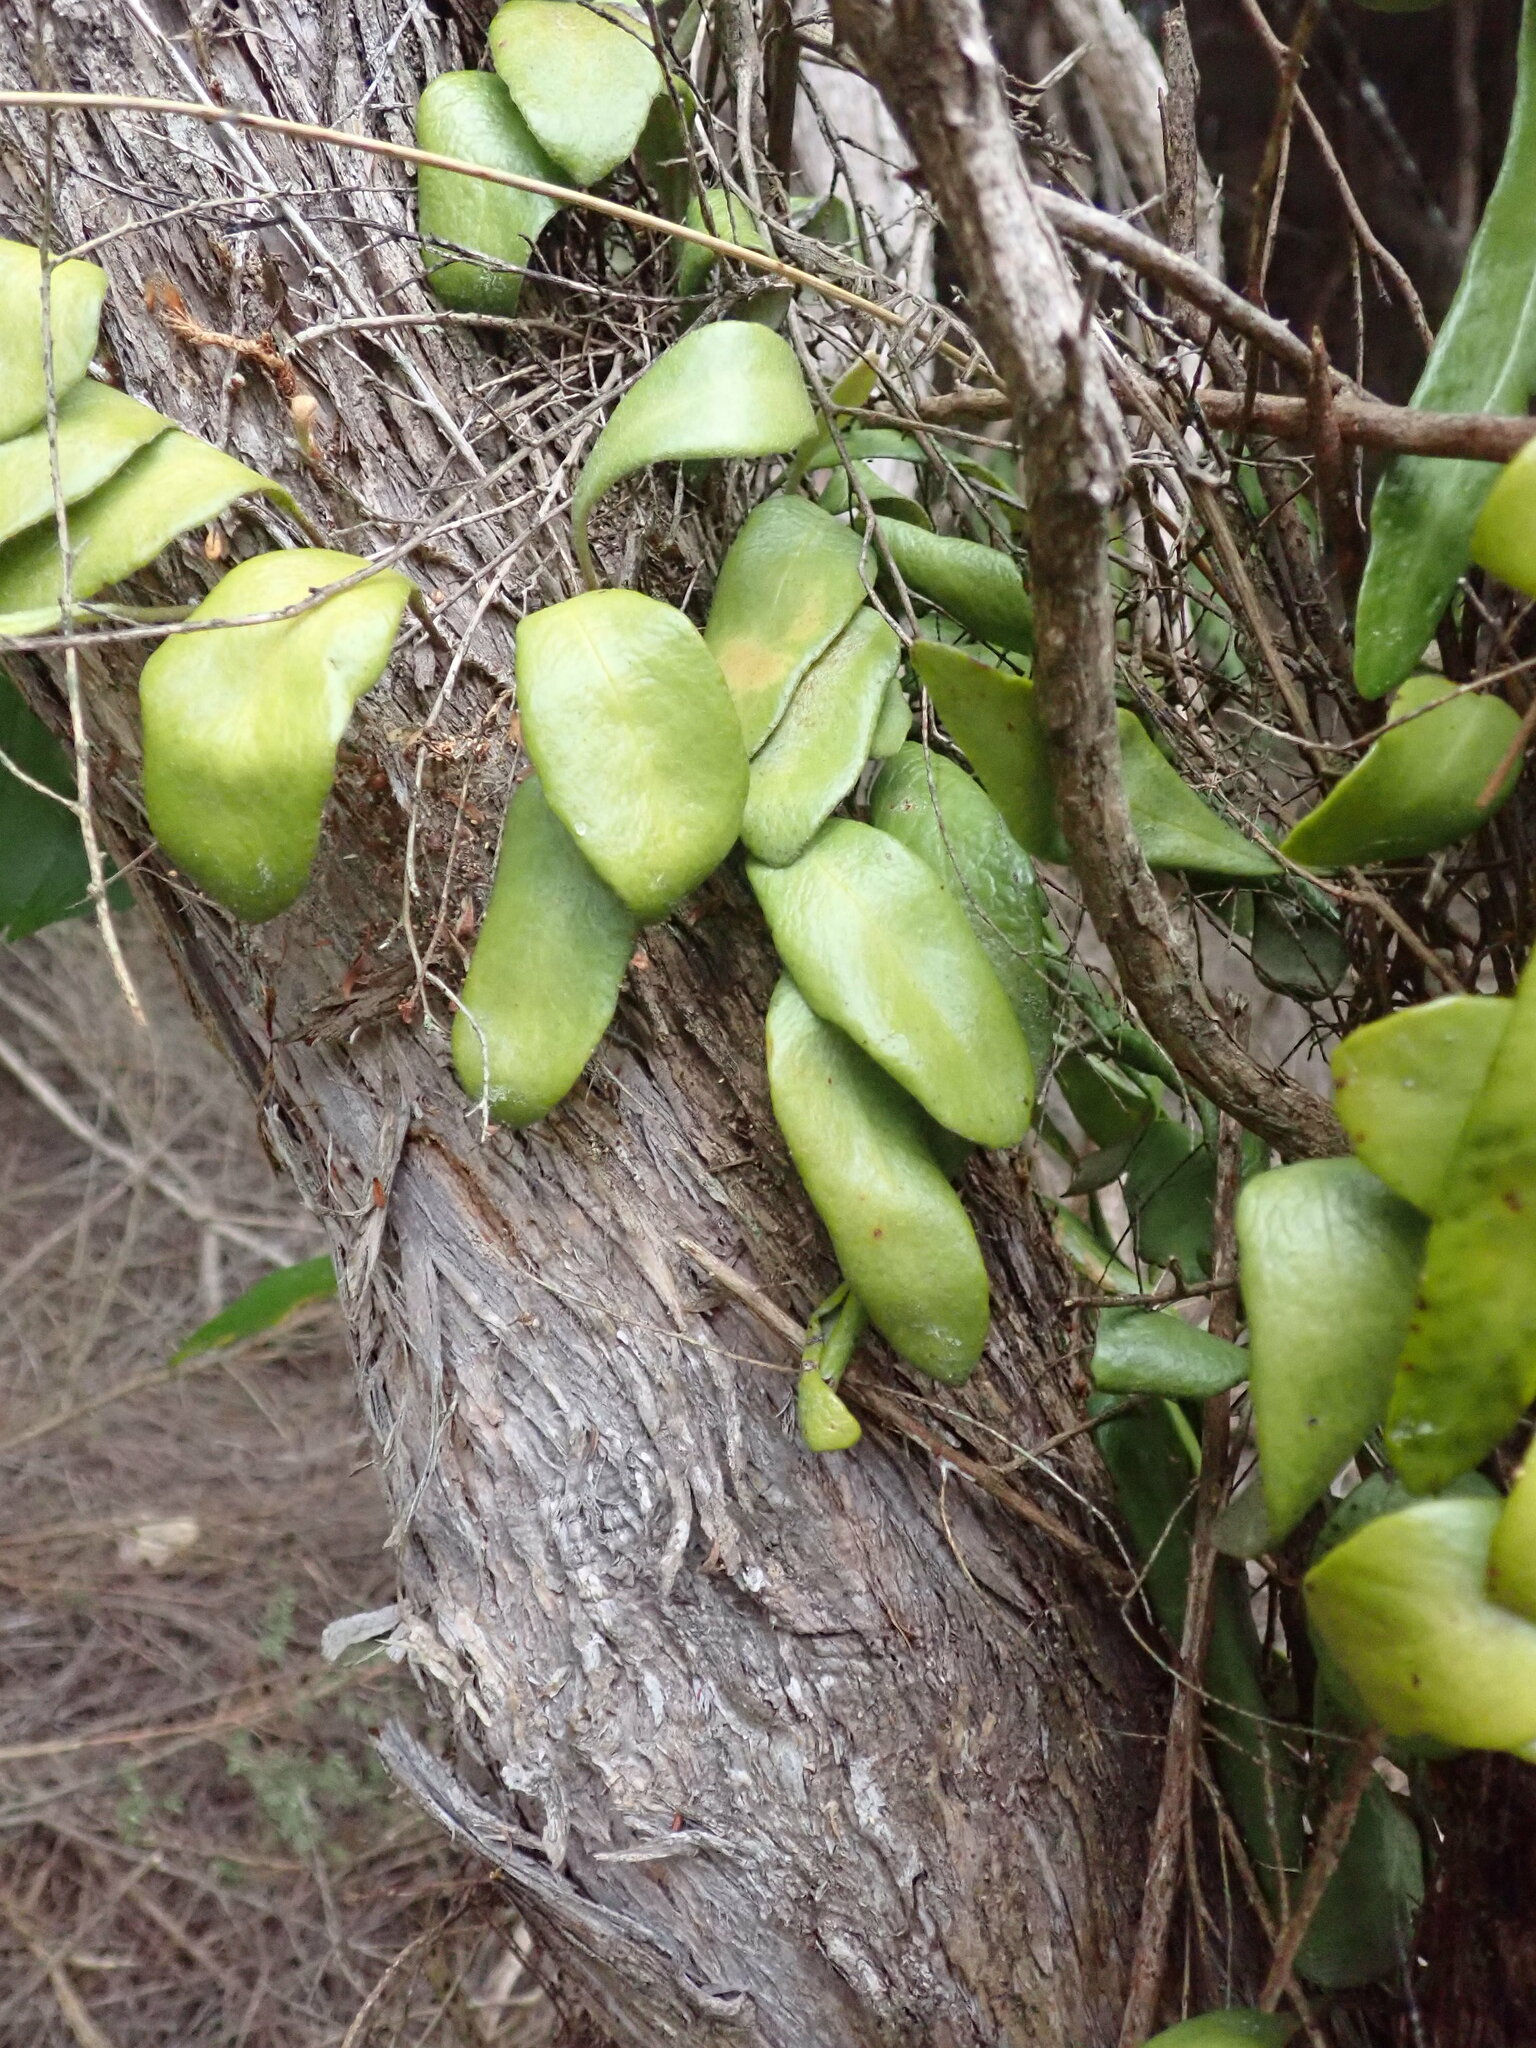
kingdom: Plantae
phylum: Tracheophyta
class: Polypodiopsida
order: Polypodiales
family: Polypodiaceae
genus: Pyrrosia
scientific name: Pyrrosia eleagnifolia
